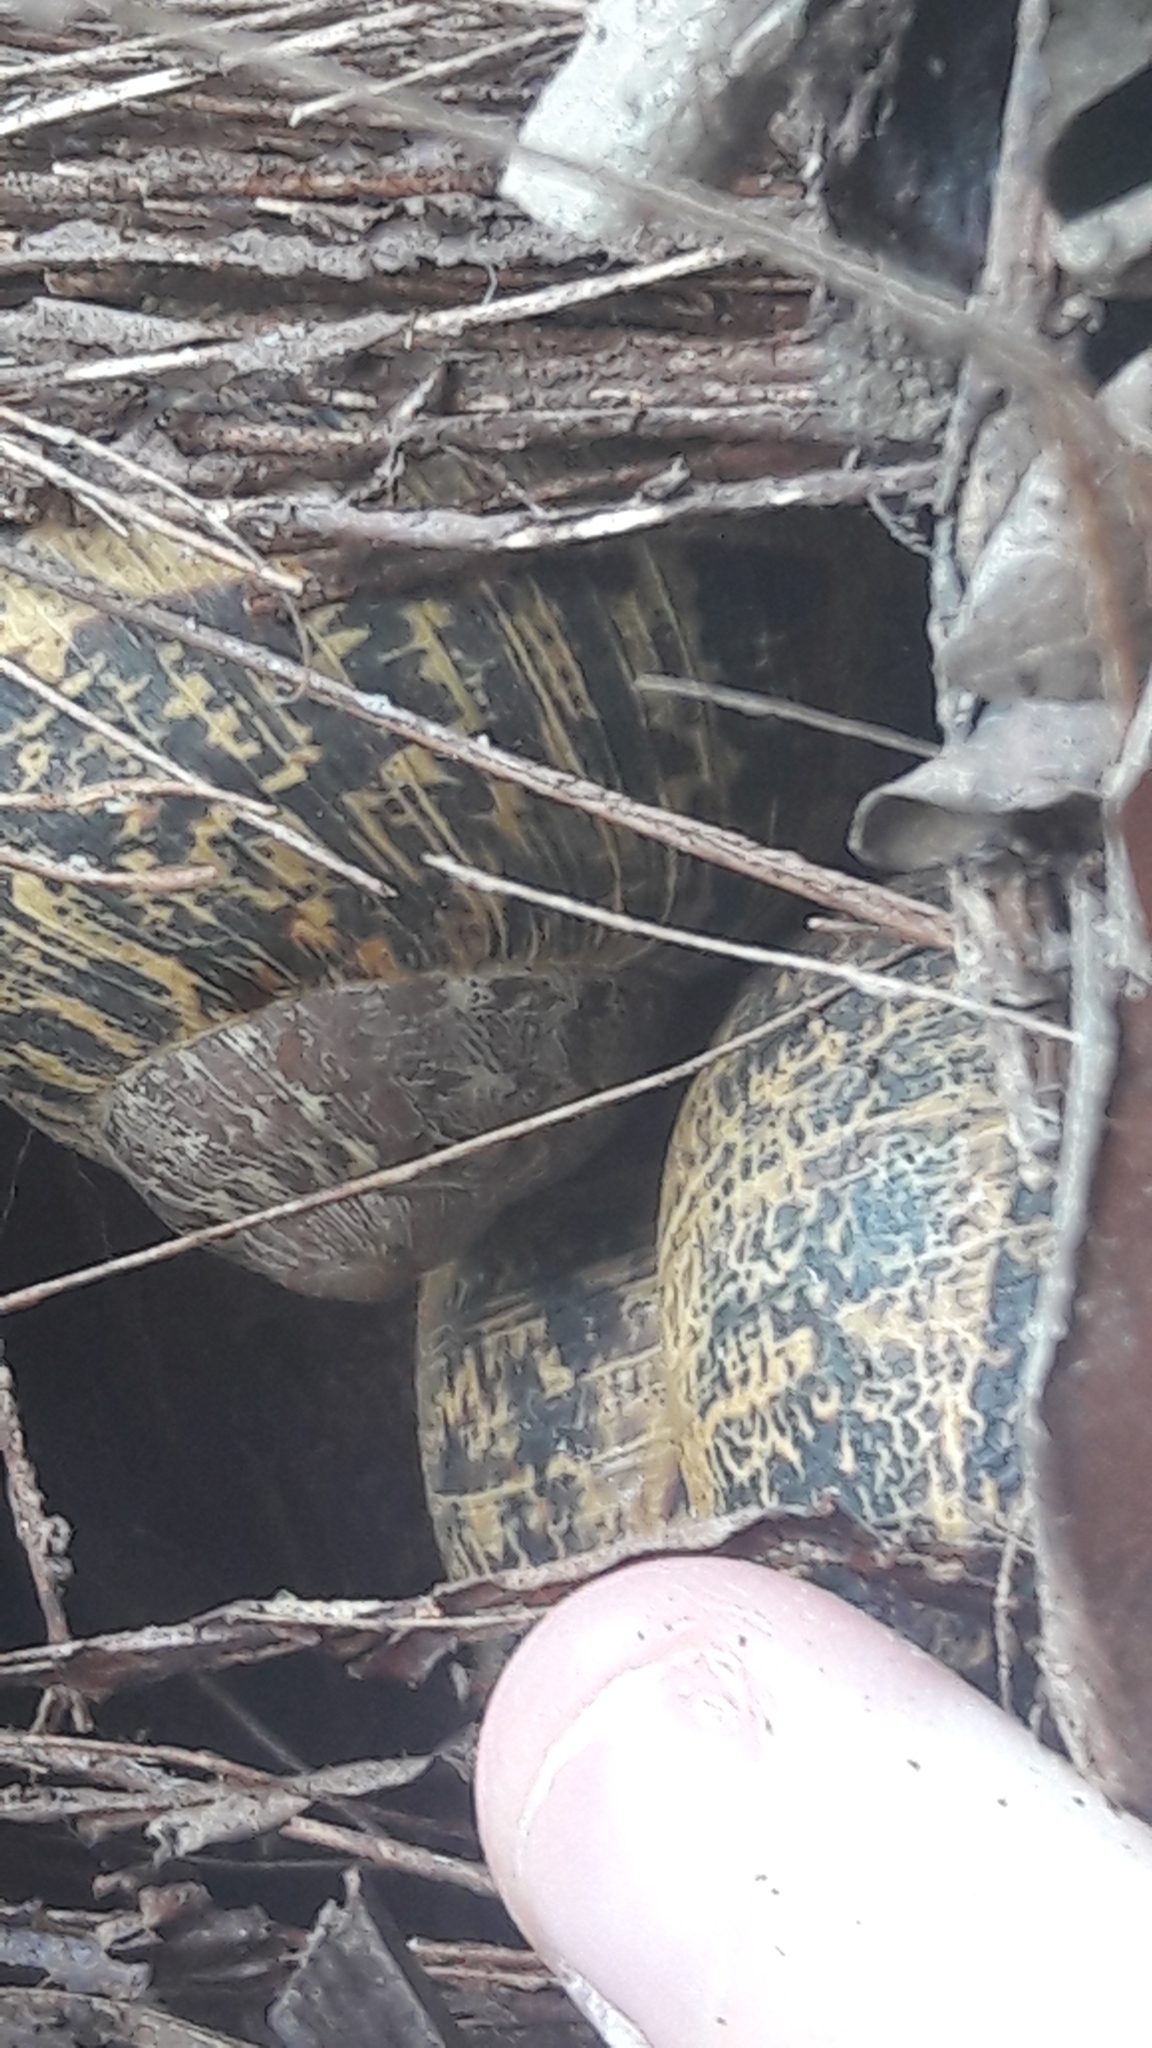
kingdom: Animalia
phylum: Mollusca
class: Gastropoda
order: Stylommatophora
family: Helicidae
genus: Cornu
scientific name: Cornu aspersum
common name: Brown garden snail
